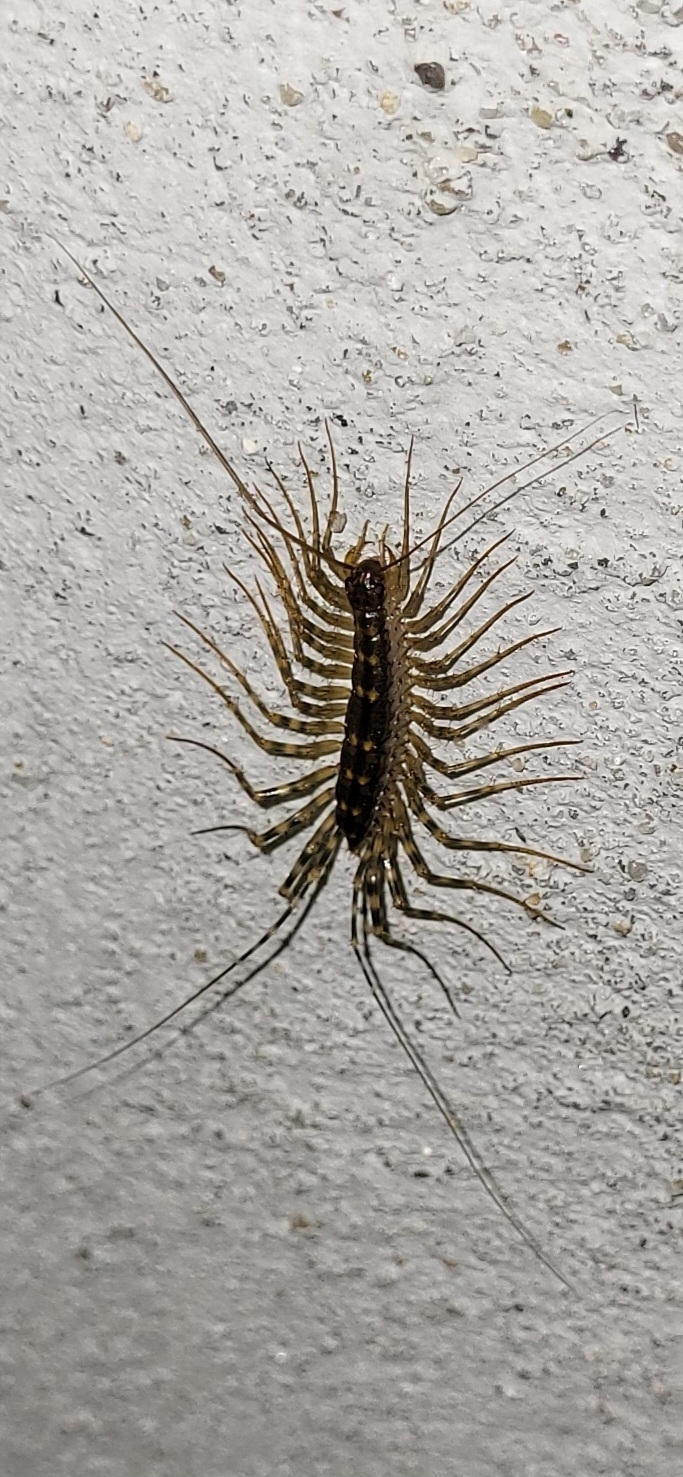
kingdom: Animalia
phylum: Arthropoda
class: Chilopoda
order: Scutigeromorpha
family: Scutigeridae
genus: Thereuonema
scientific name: Thereuonema tuberculata
